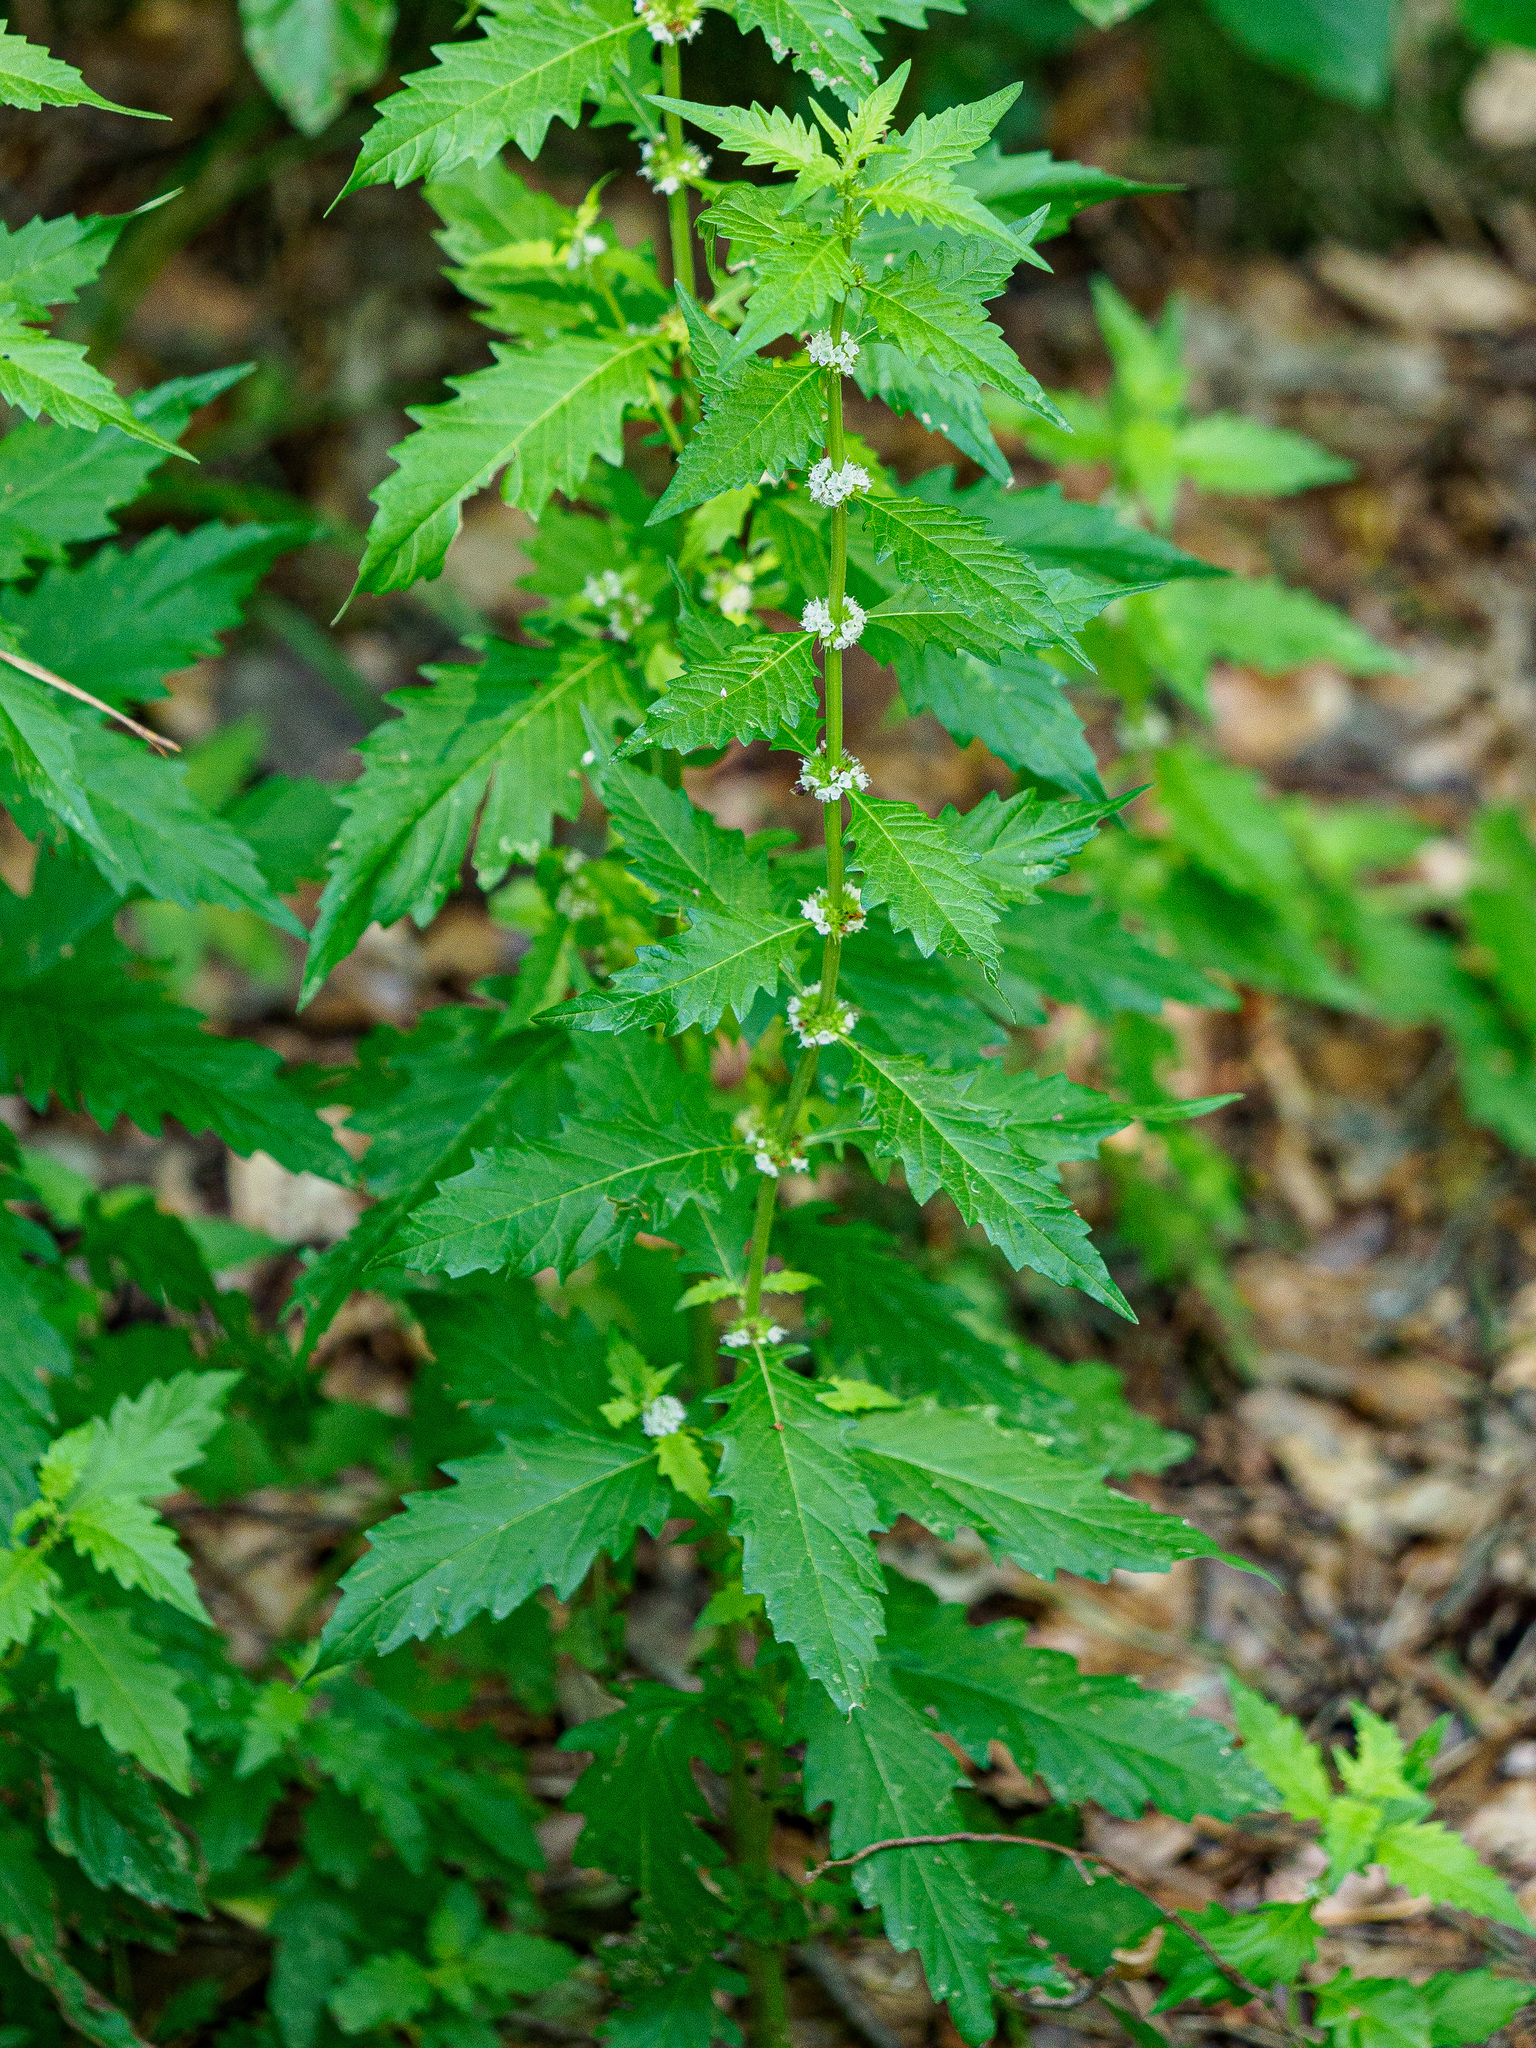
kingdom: Plantae
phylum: Tracheophyta
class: Magnoliopsida
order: Lamiales
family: Lamiaceae
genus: Lycopus
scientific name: Lycopus europaeus
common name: European bugleweed
